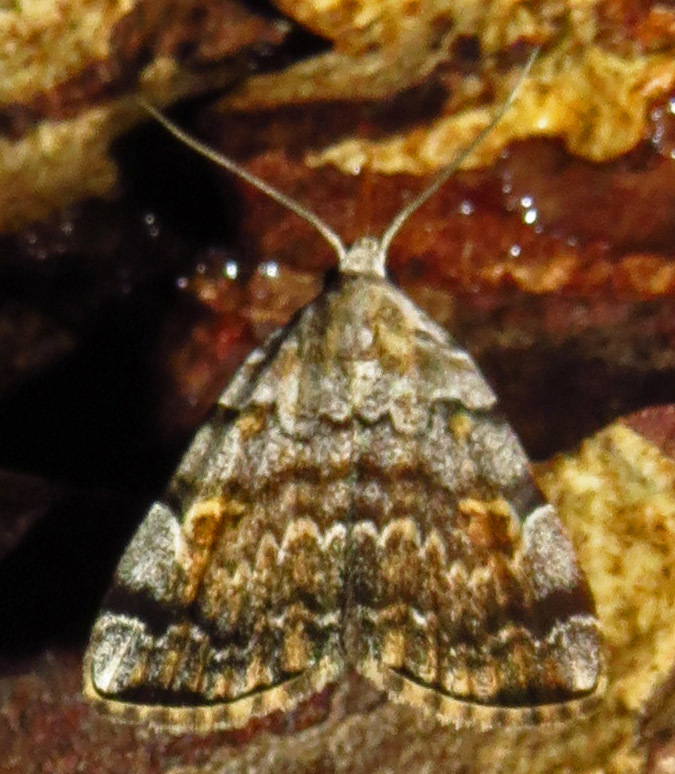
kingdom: Animalia
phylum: Arthropoda
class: Insecta
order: Lepidoptera
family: Erebidae
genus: Idia
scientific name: Idia americalis
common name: American idia moth
